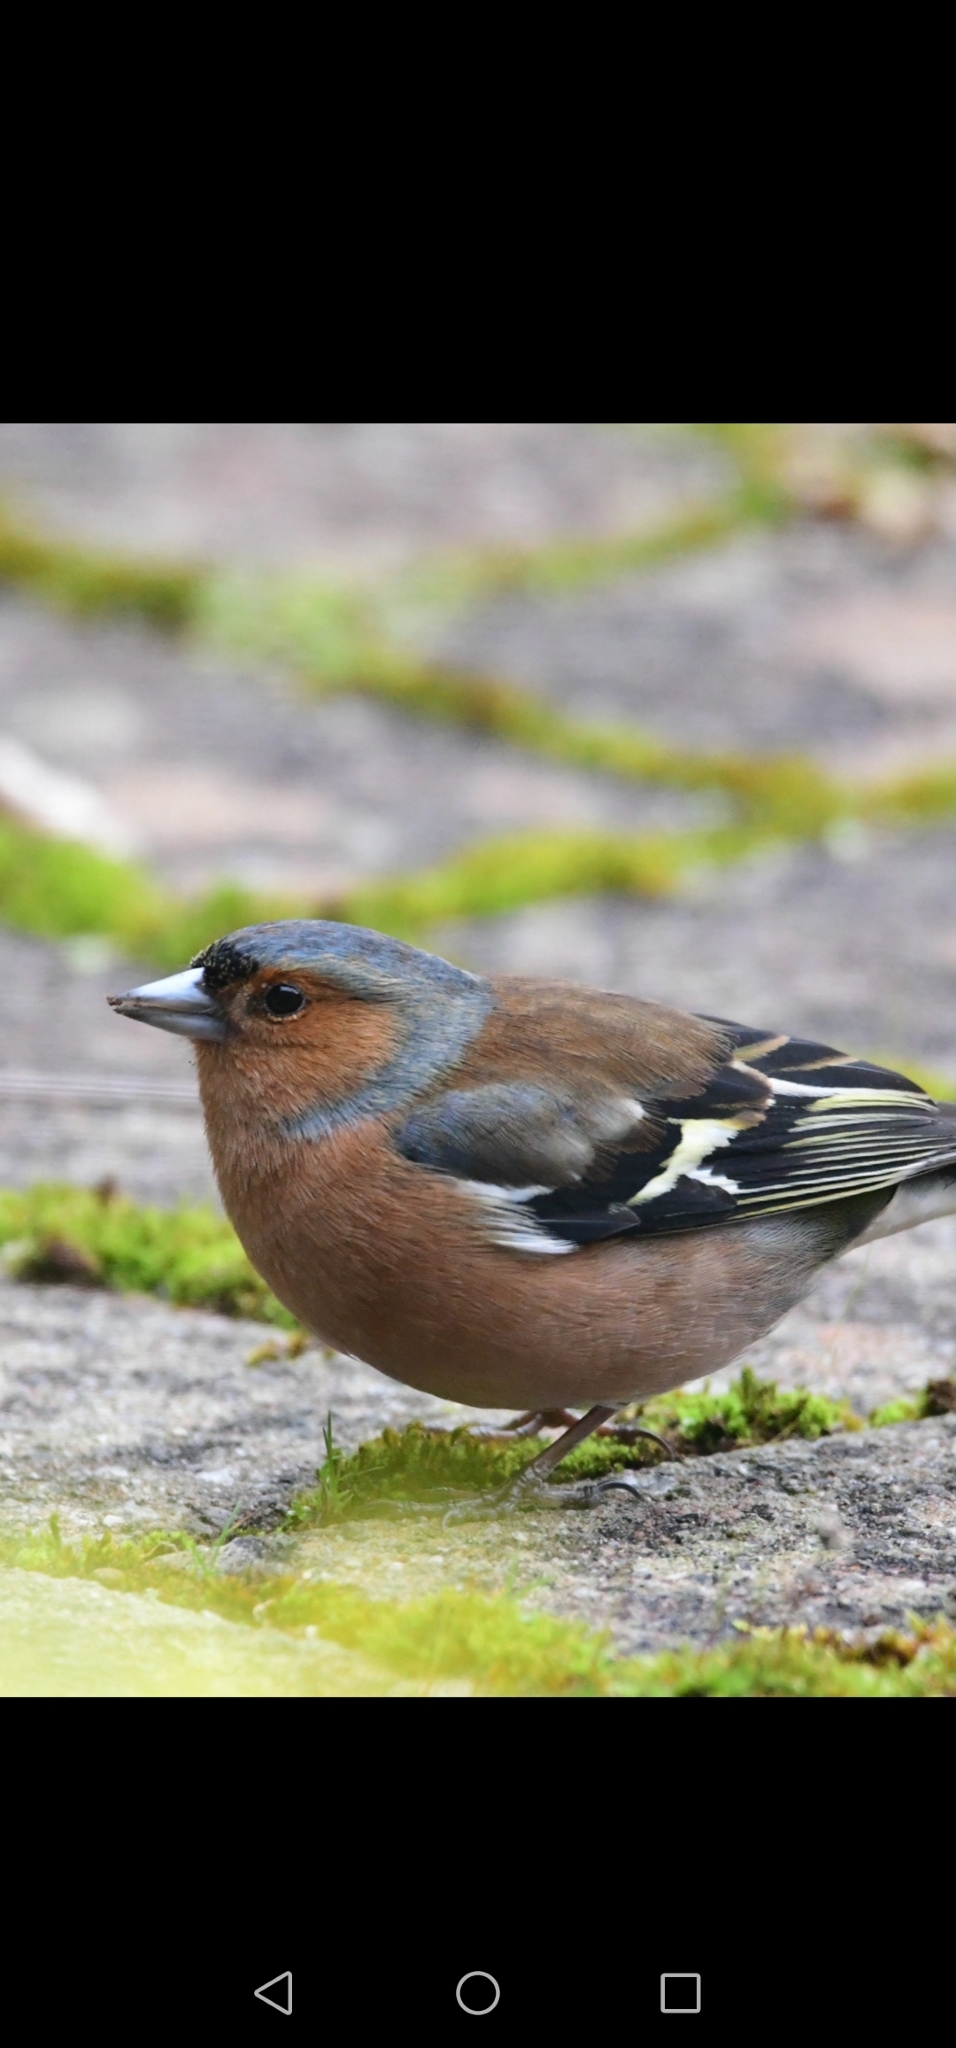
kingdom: Animalia
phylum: Chordata
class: Aves
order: Passeriformes
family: Fringillidae
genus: Fringilla
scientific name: Fringilla coelebs
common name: Common chaffinch
